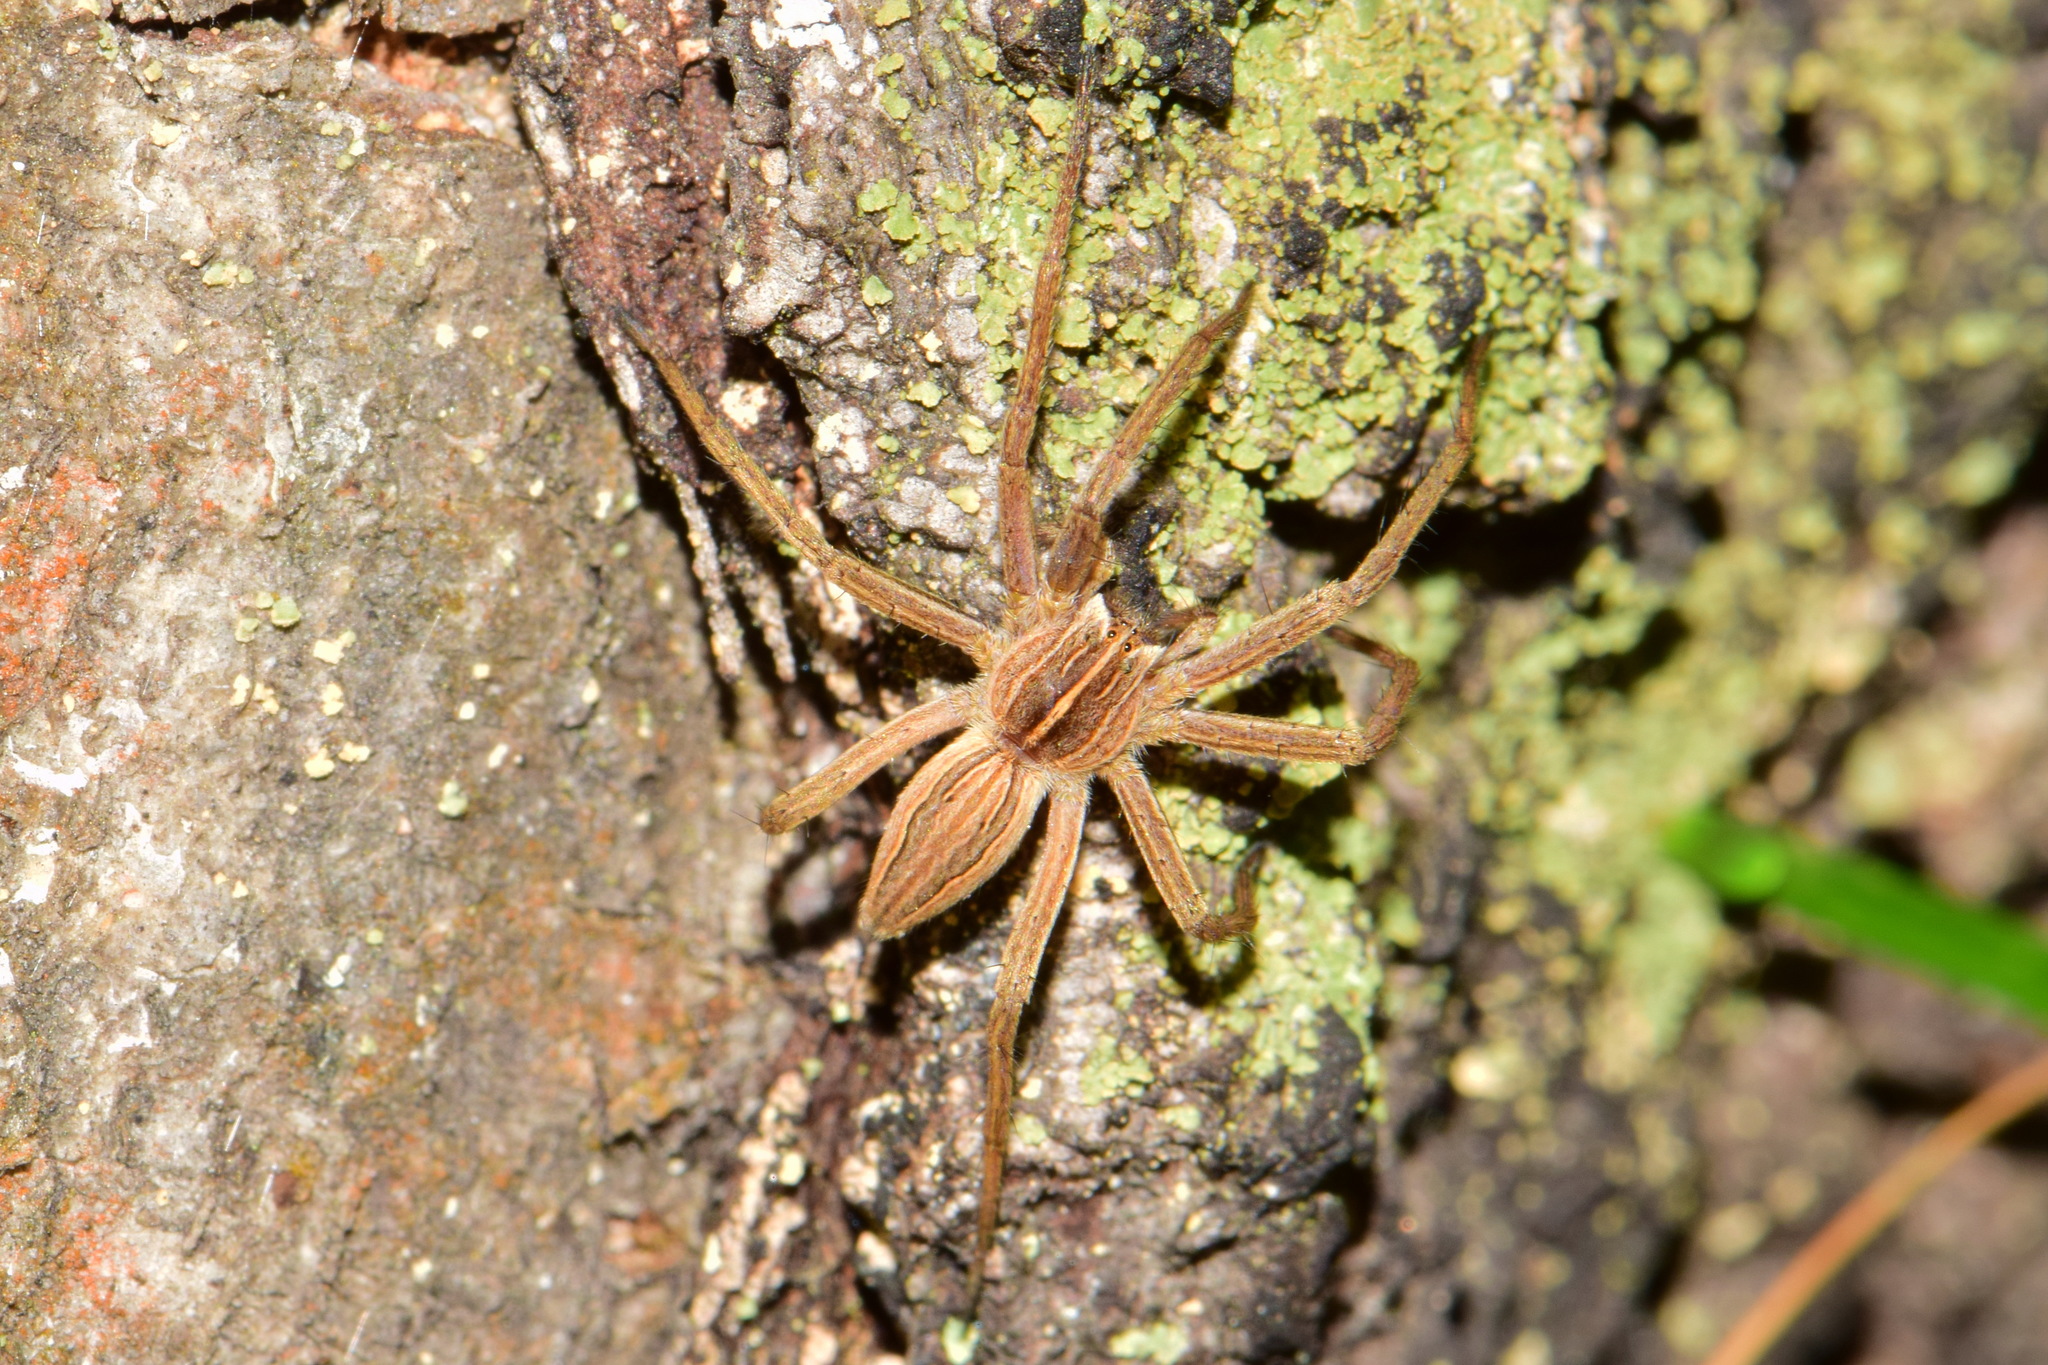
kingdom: Animalia
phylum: Arthropoda
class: Arachnida
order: Araneae
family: Pisauridae
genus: Pisaura
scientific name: Pisaura mirabilis
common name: Tent spider
